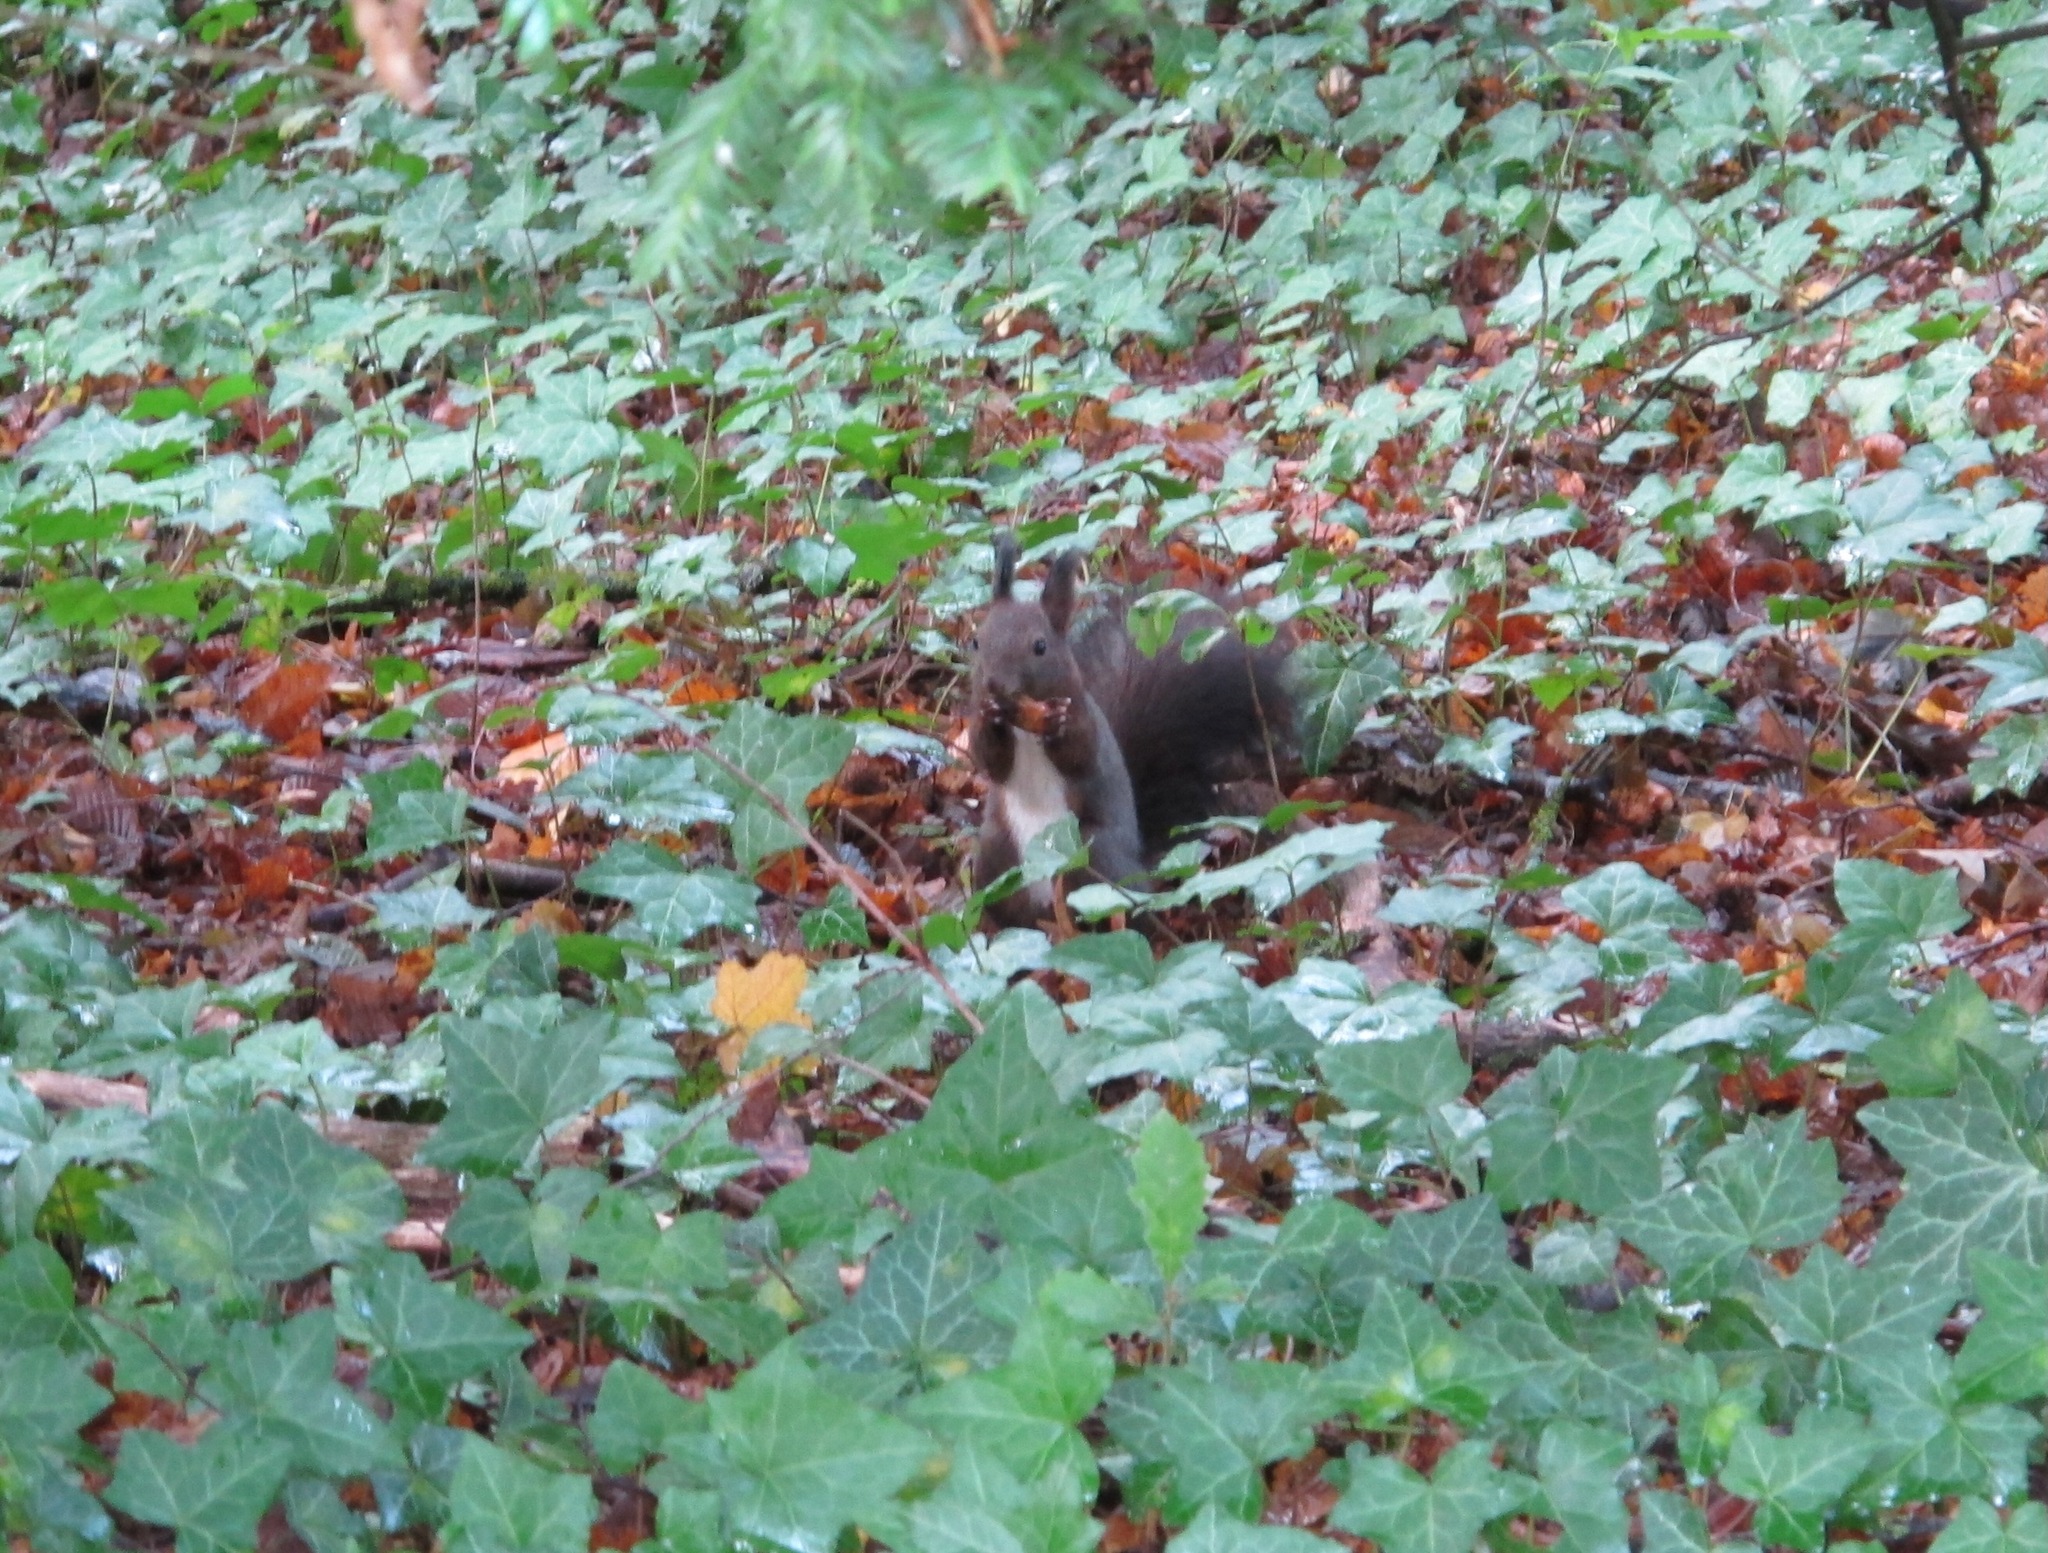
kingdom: Animalia
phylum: Chordata
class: Mammalia
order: Rodentia
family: Sciuridae
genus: Sciurus
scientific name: Sciurus vulgaris
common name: Eurasian red squirrel
